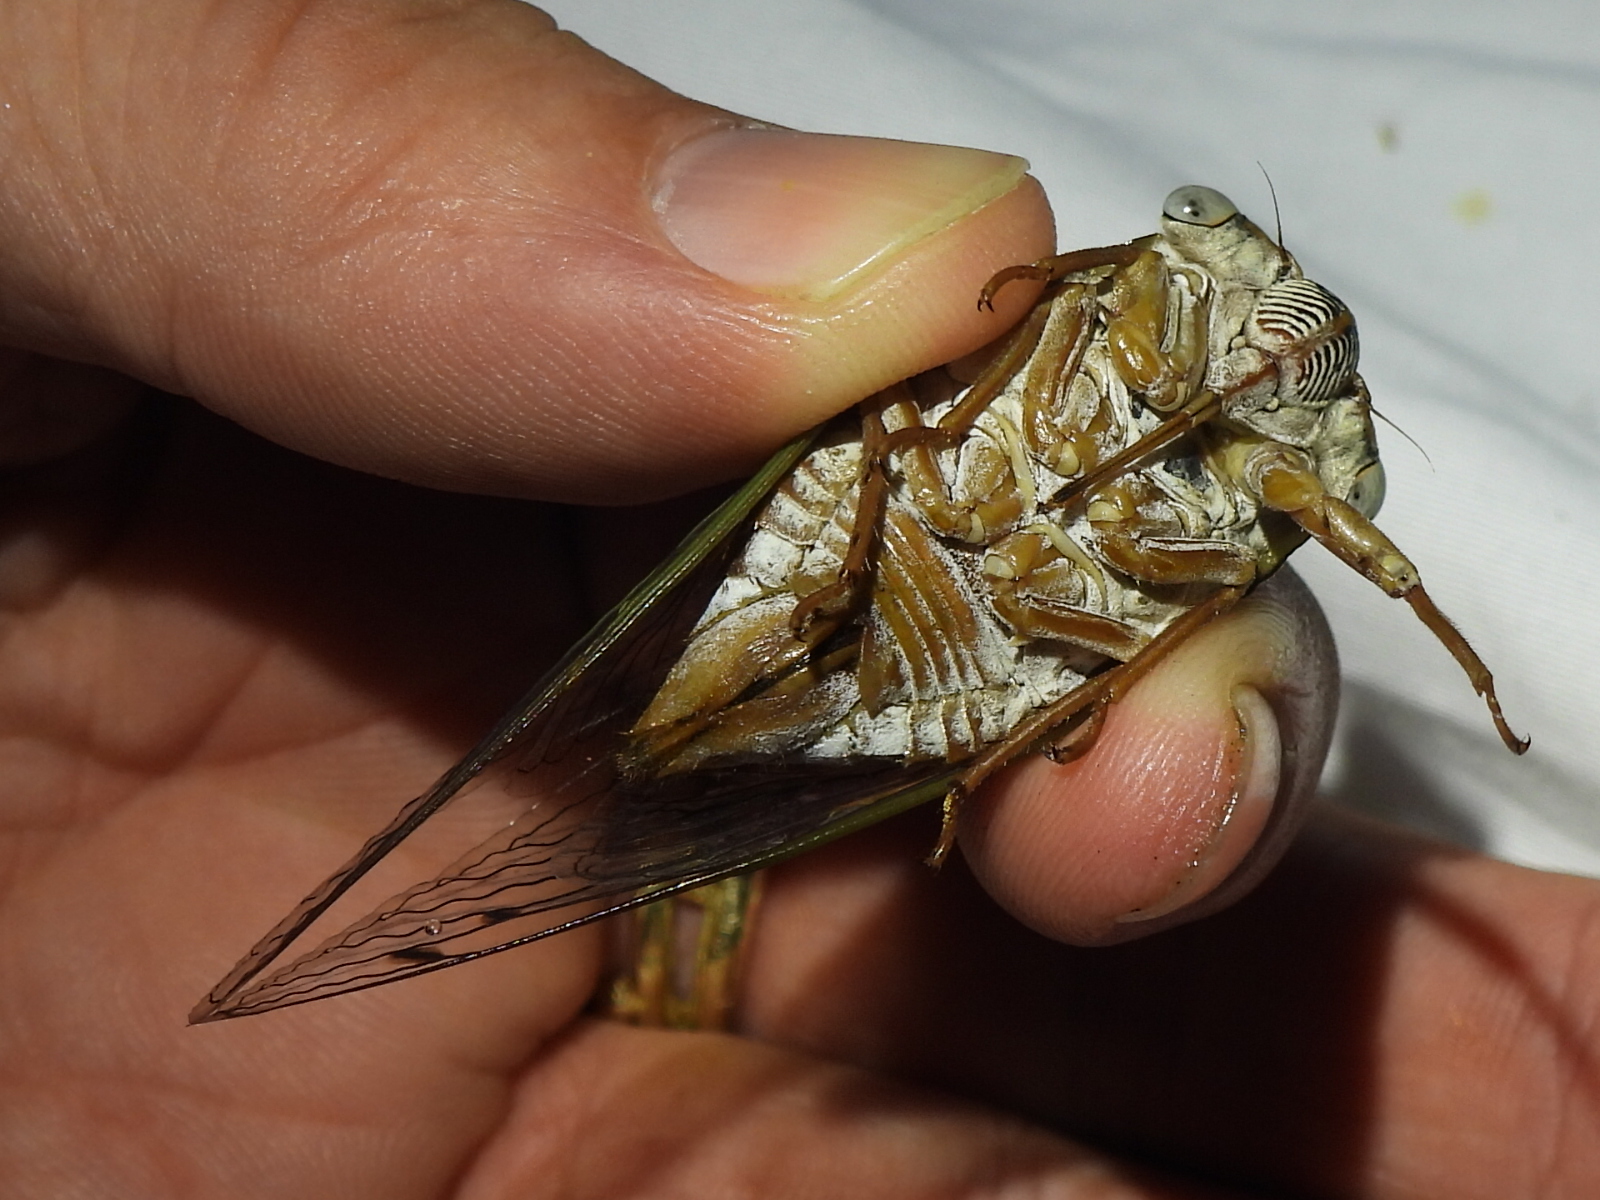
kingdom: Animalia
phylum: Arthropoda
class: Insecta
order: Hemiptera
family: Cicadidae
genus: Megatibicen
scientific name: Megatibicen resh
